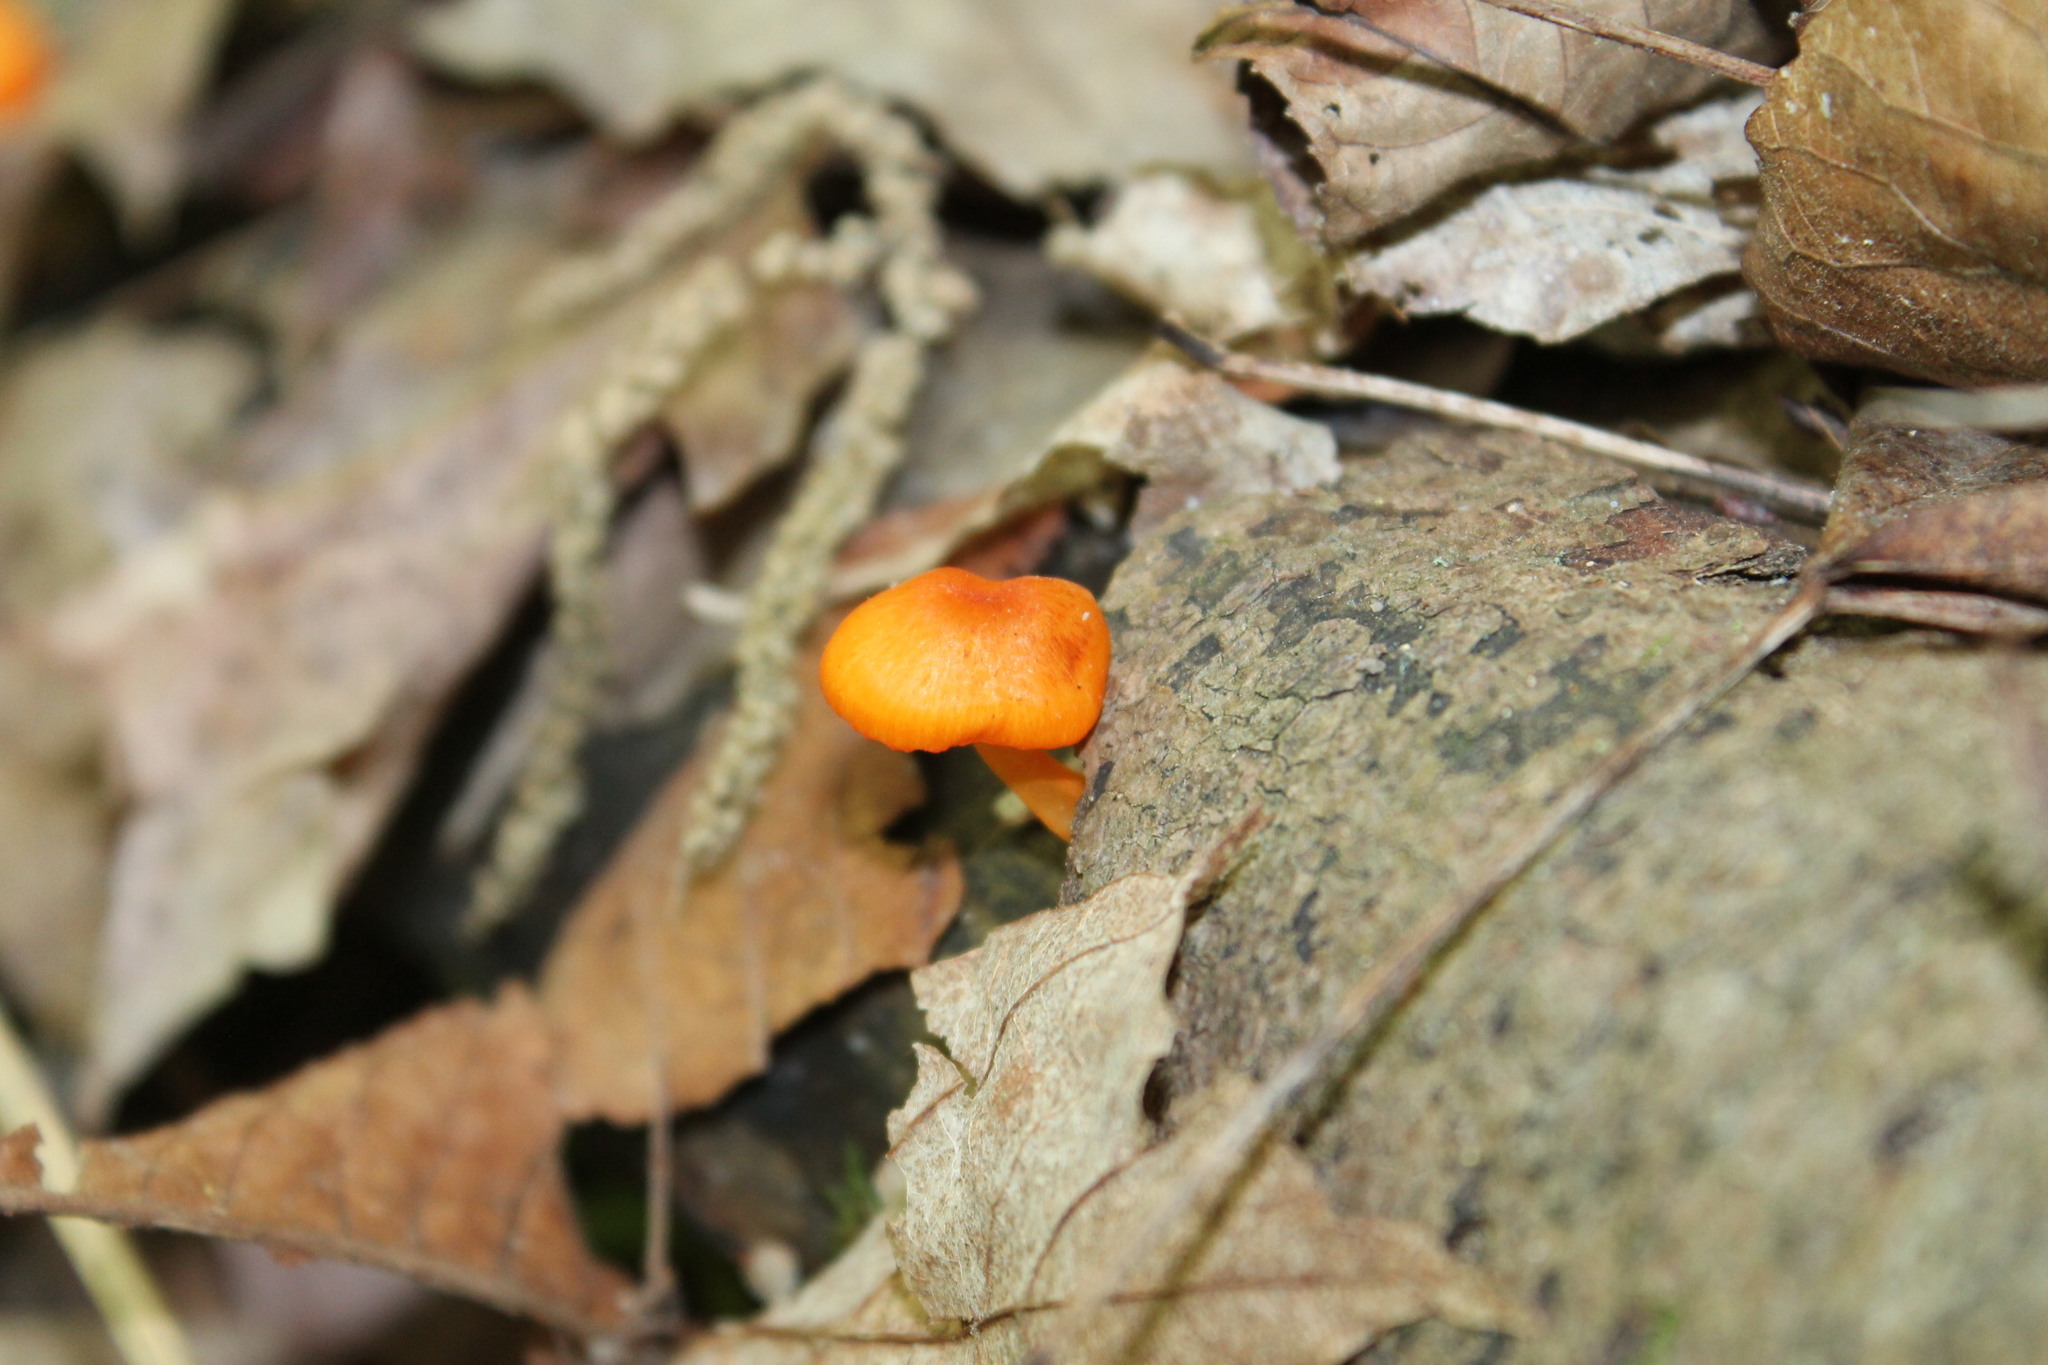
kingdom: Fungi
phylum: Basidiomycota
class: Agaricomycetes
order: Agaricales
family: Mycenaceae
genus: Mycena
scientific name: Mycena leaiana
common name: Orange mycena
